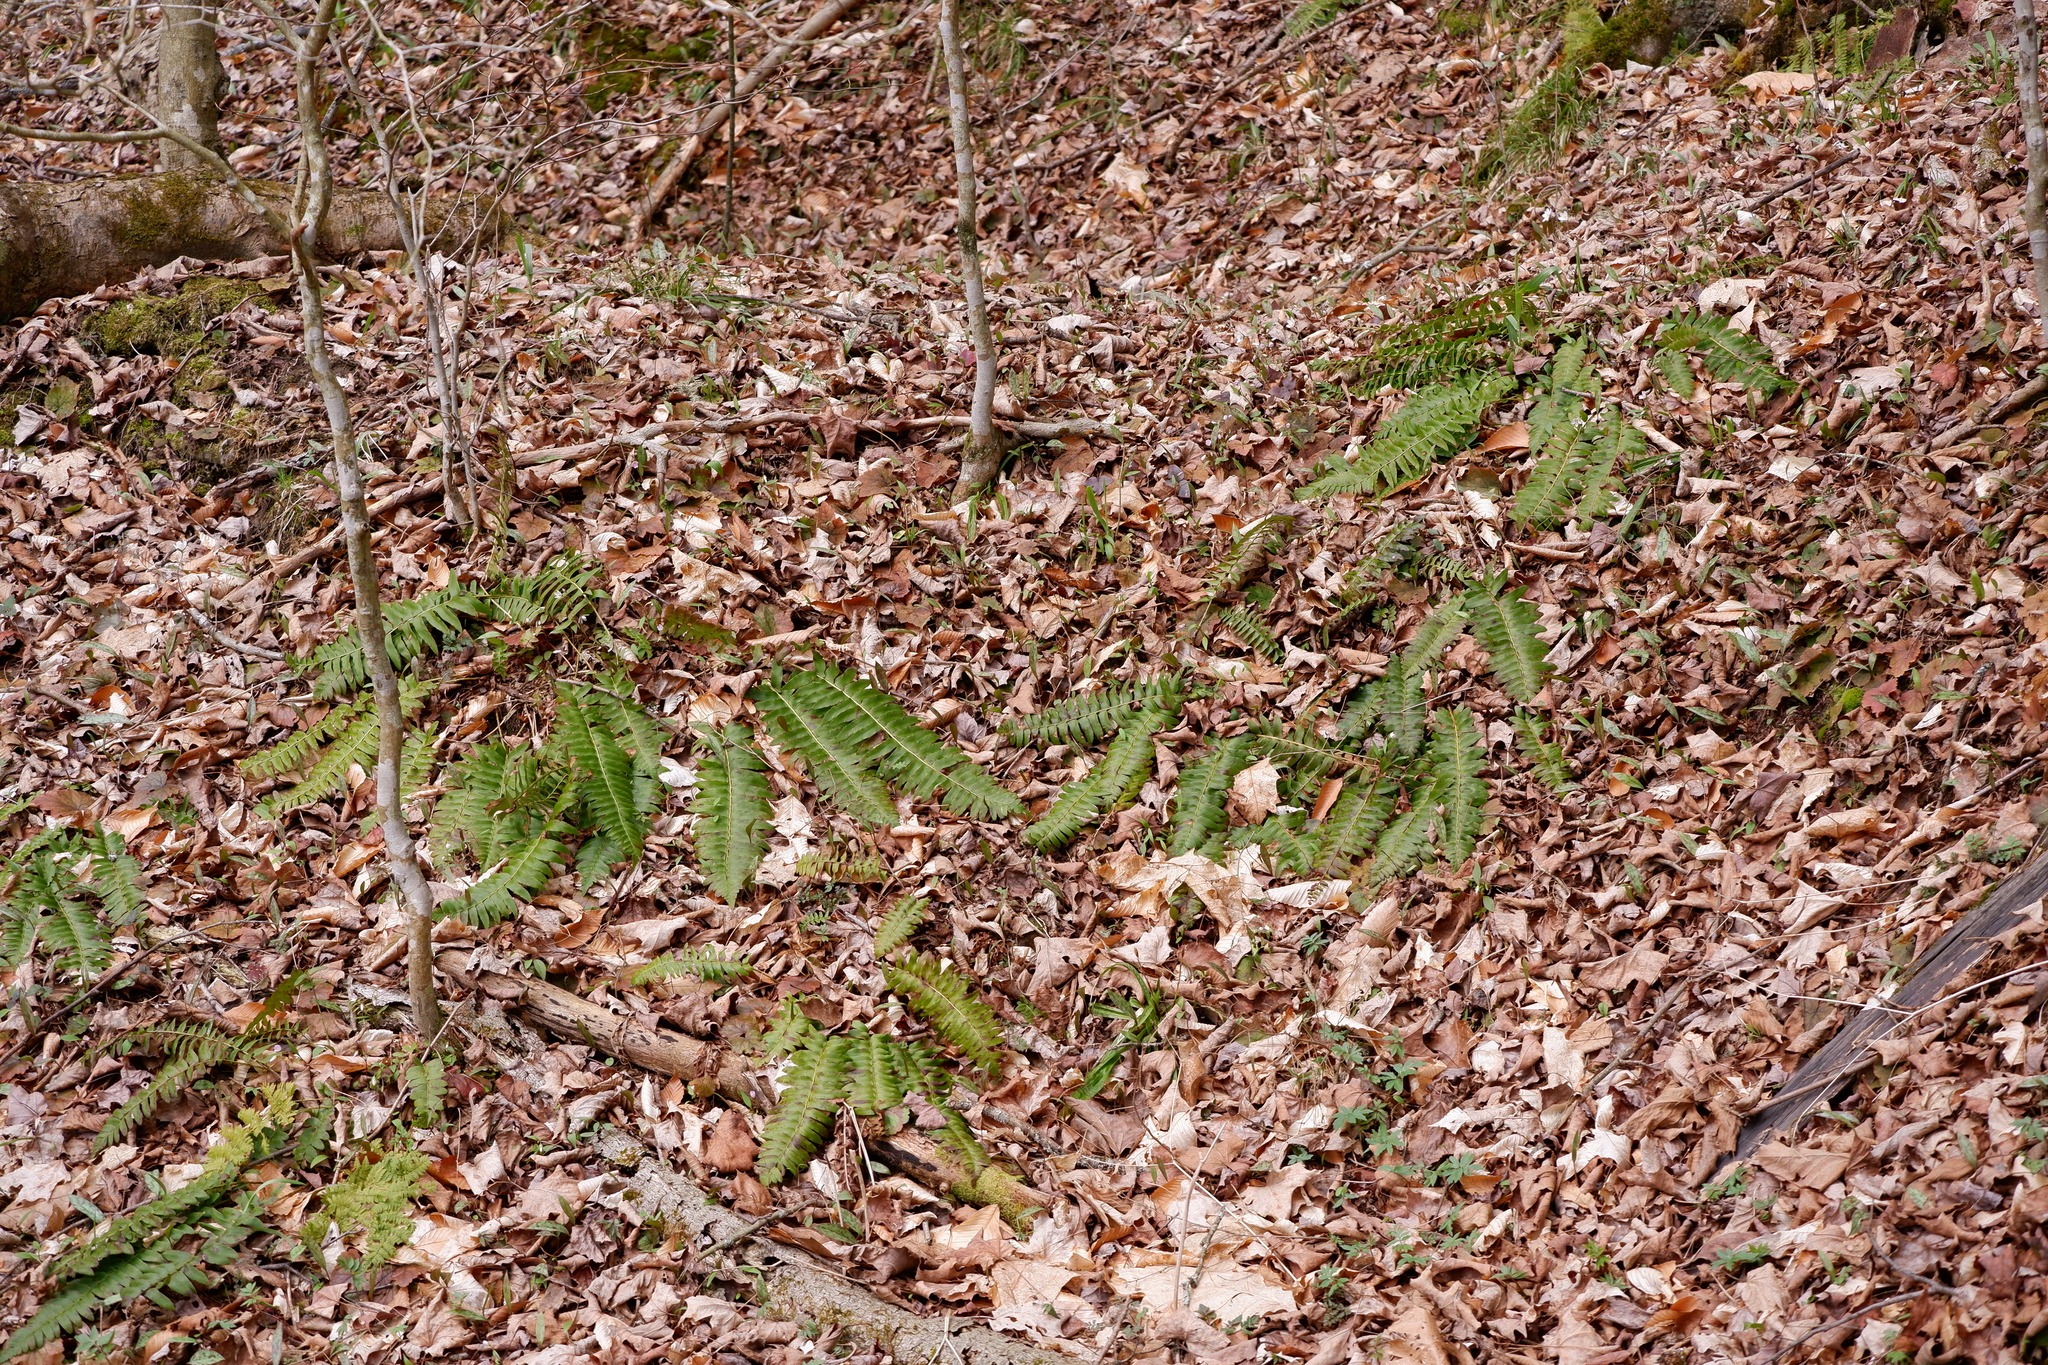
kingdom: Plantae
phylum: Tracheophyta
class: Polypodiopsida
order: Polypodiales
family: Dryopteridaceae
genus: Polystichum
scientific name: Polystichum acrostichoides
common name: Christmas fern
